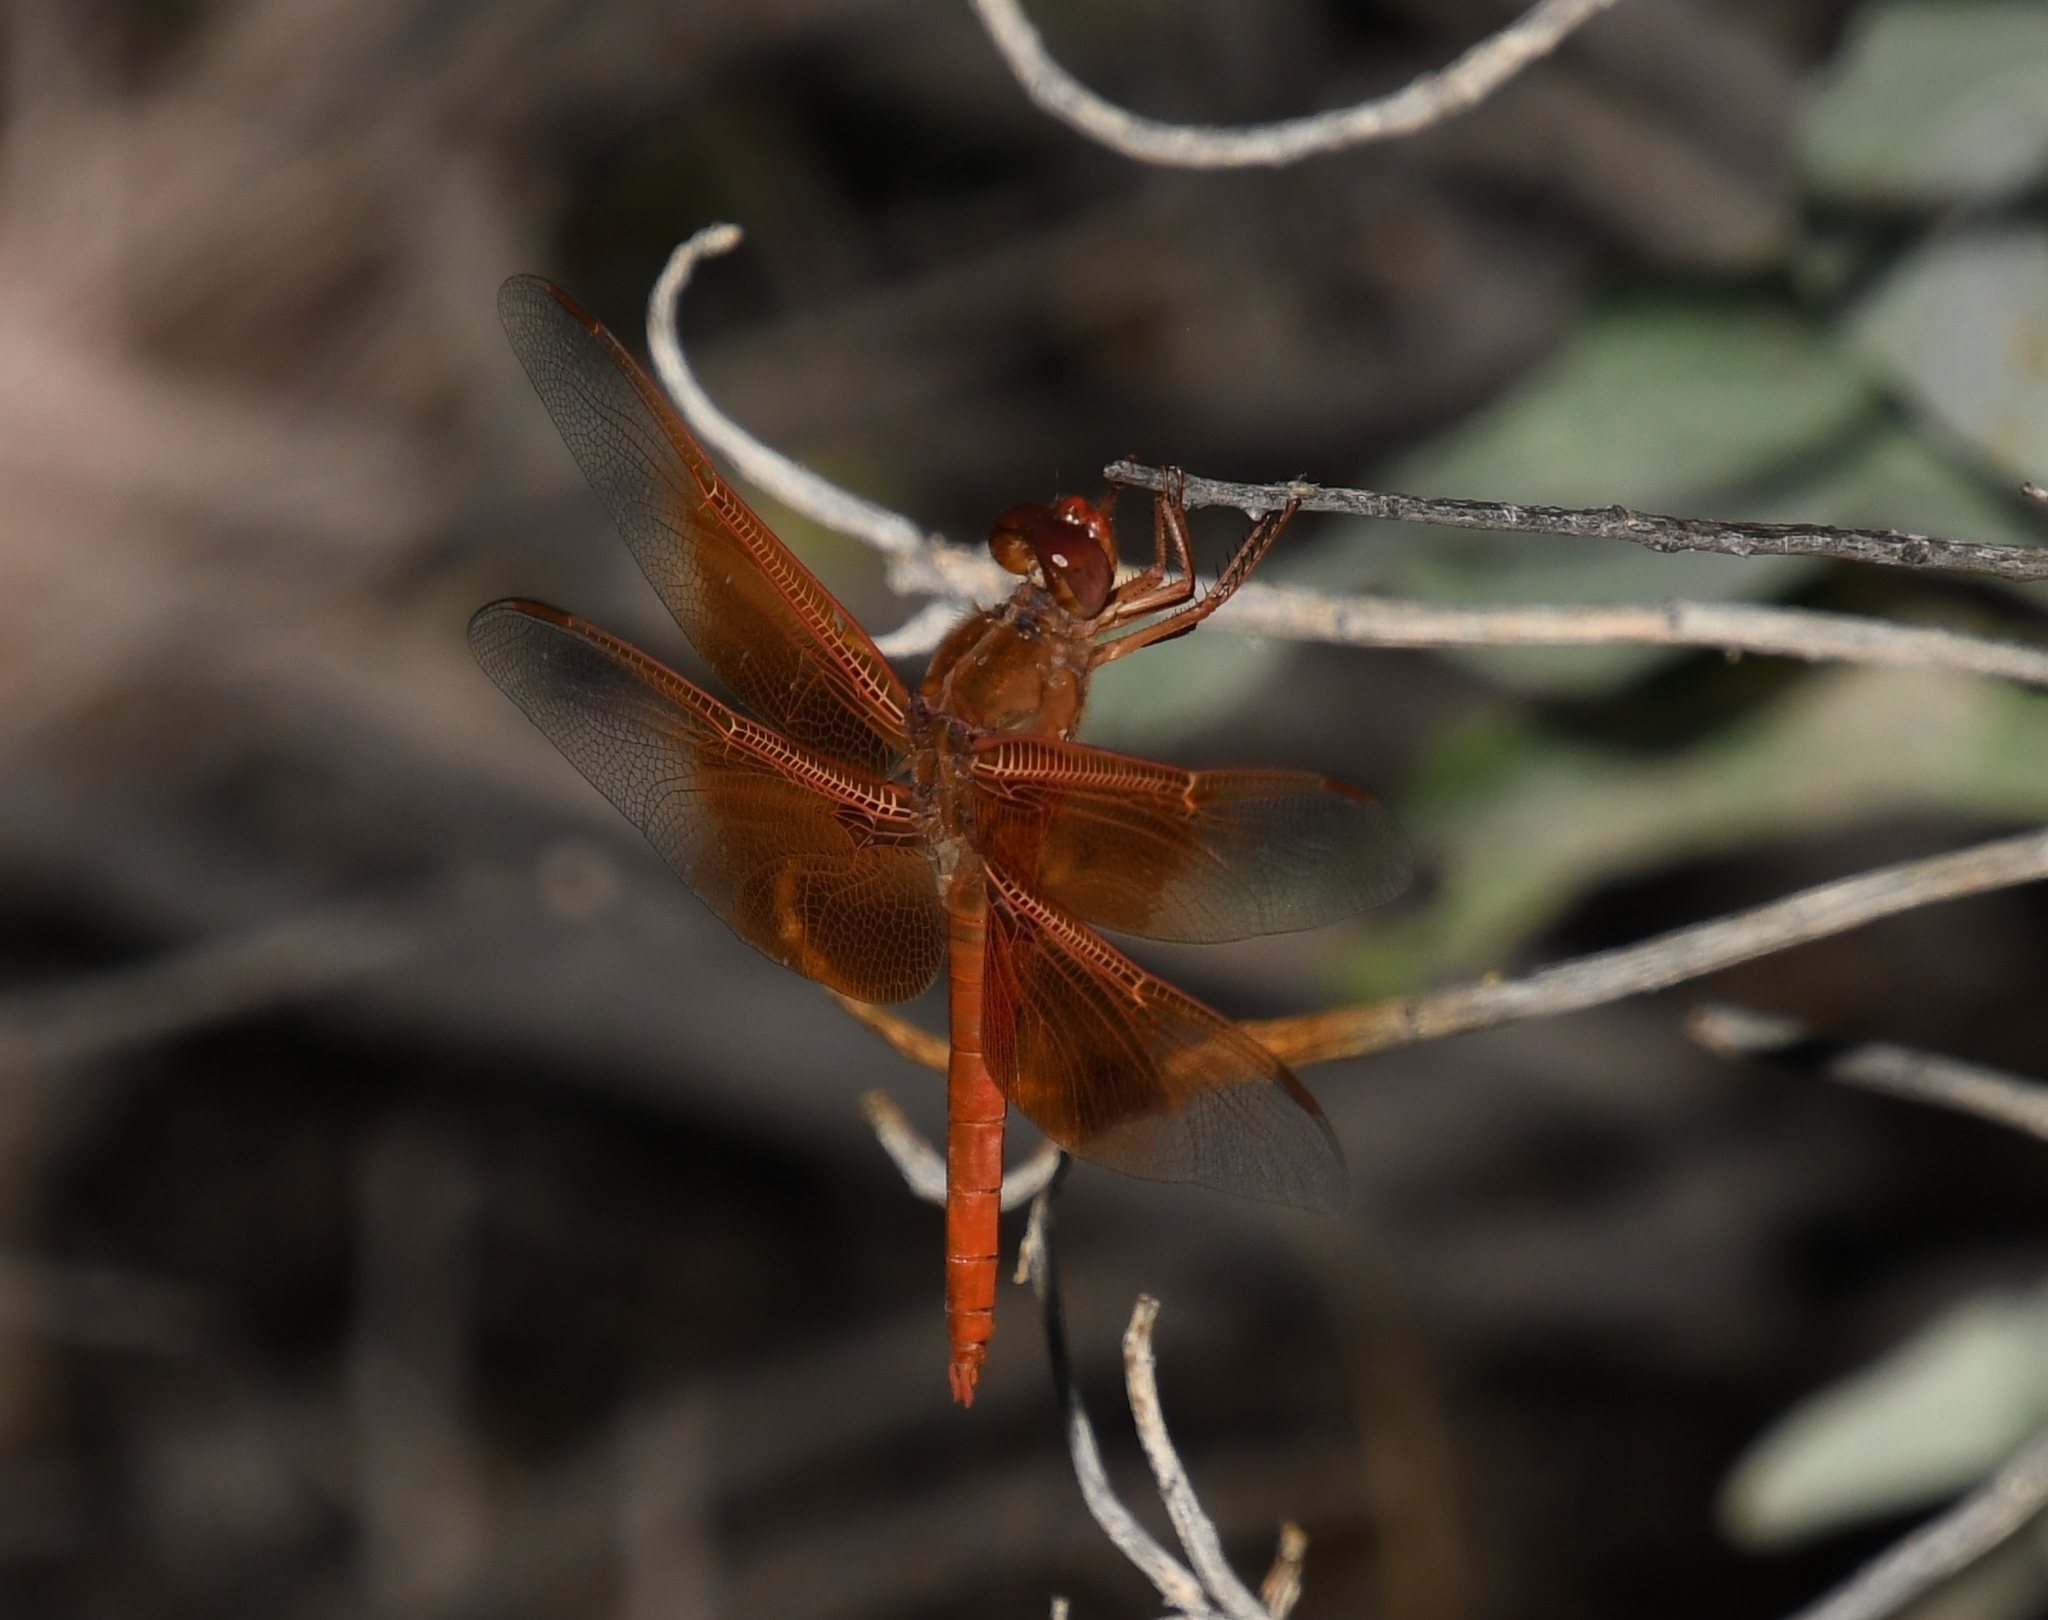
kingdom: Animalia
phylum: Arthropoda
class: Insecta
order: Odonata
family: Libellulidae
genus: Libellula
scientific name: Libellula saturata
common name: Flame skimmer
